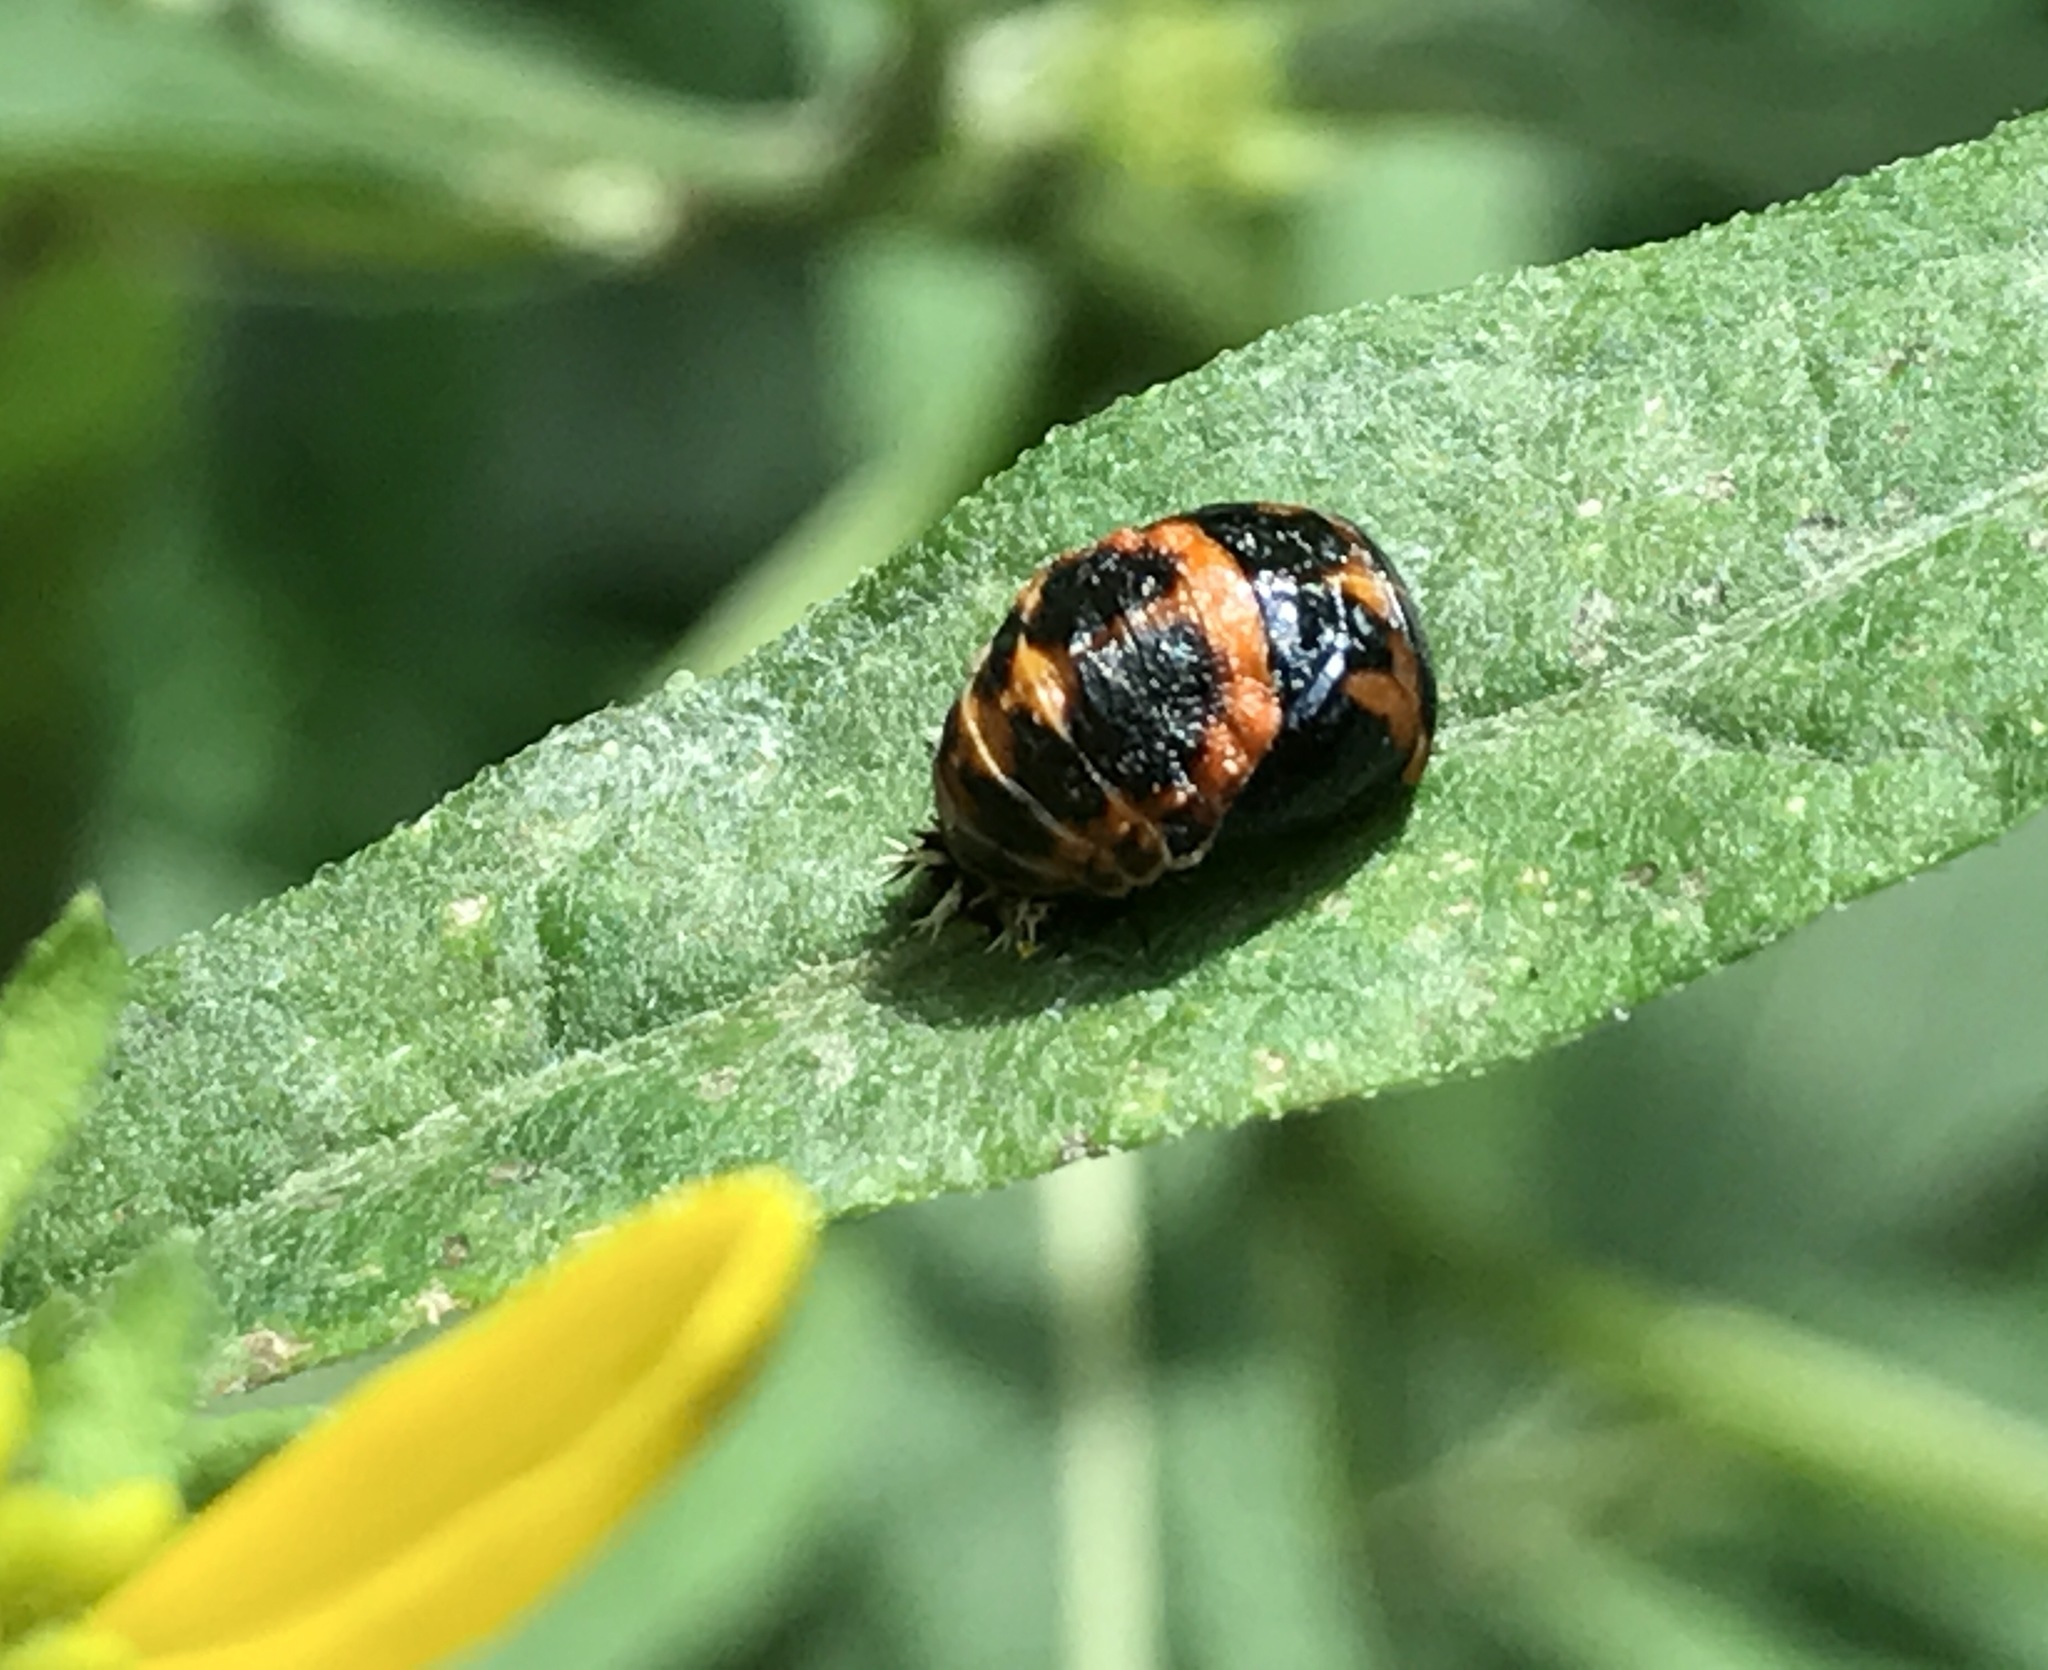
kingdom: Animalia
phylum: Arthropoda
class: Insecta
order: Coleoptera
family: Coccinellidae
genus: Harmonia
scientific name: Harmonia axyridis
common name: Harlequin ladybird
